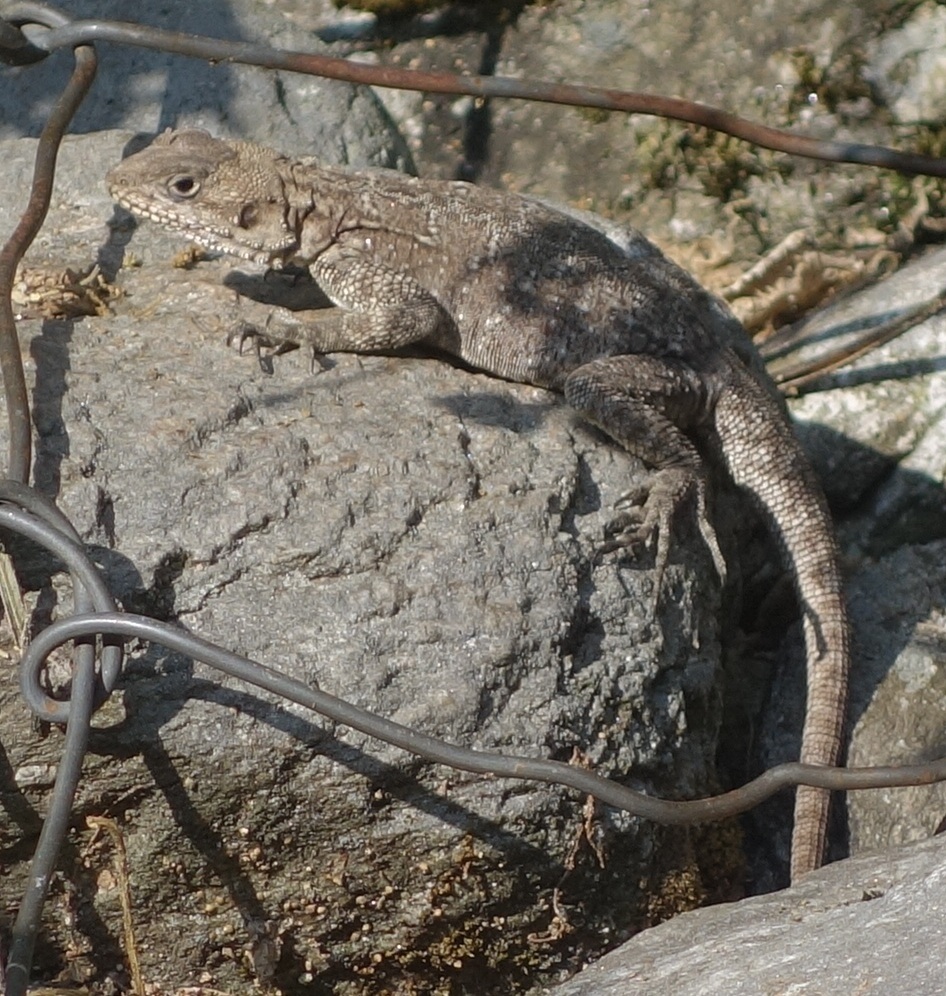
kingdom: Animalia
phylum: Chordata
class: Squamata
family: Agamidae
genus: Laudakia
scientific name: Laudakia tuberculata
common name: Kashmir rock agama
